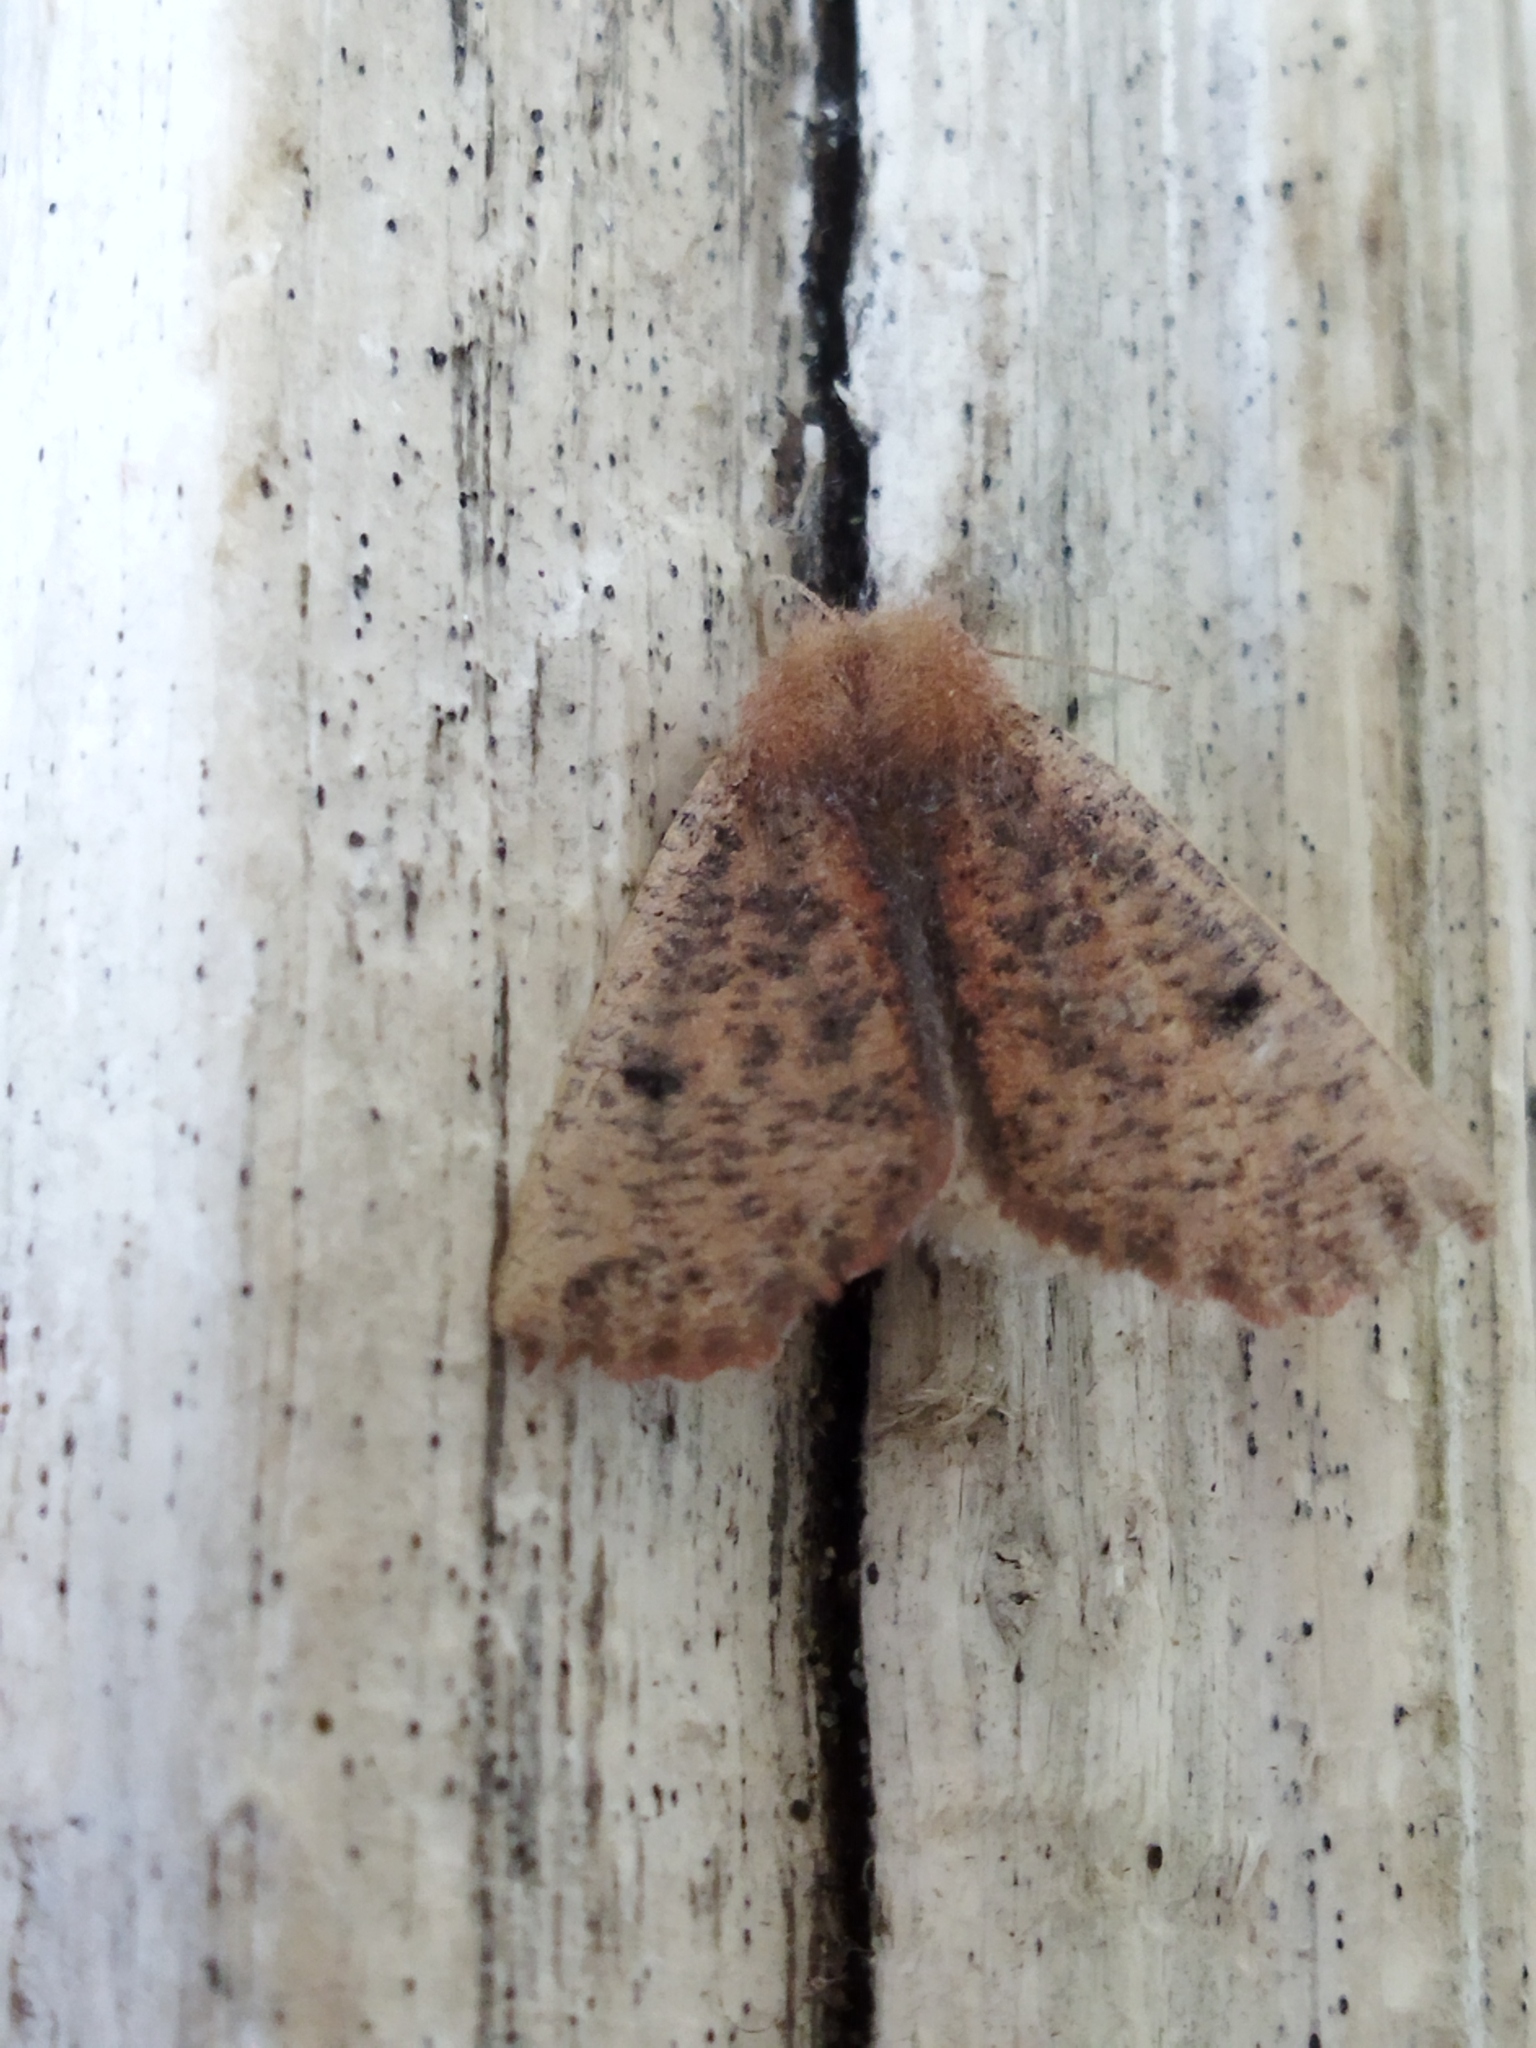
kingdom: Animalia
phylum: Arthropoda
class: Insecta
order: Lepidoptera
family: Geometridae
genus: Dasycorsa
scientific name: Dasycorsa modesta
